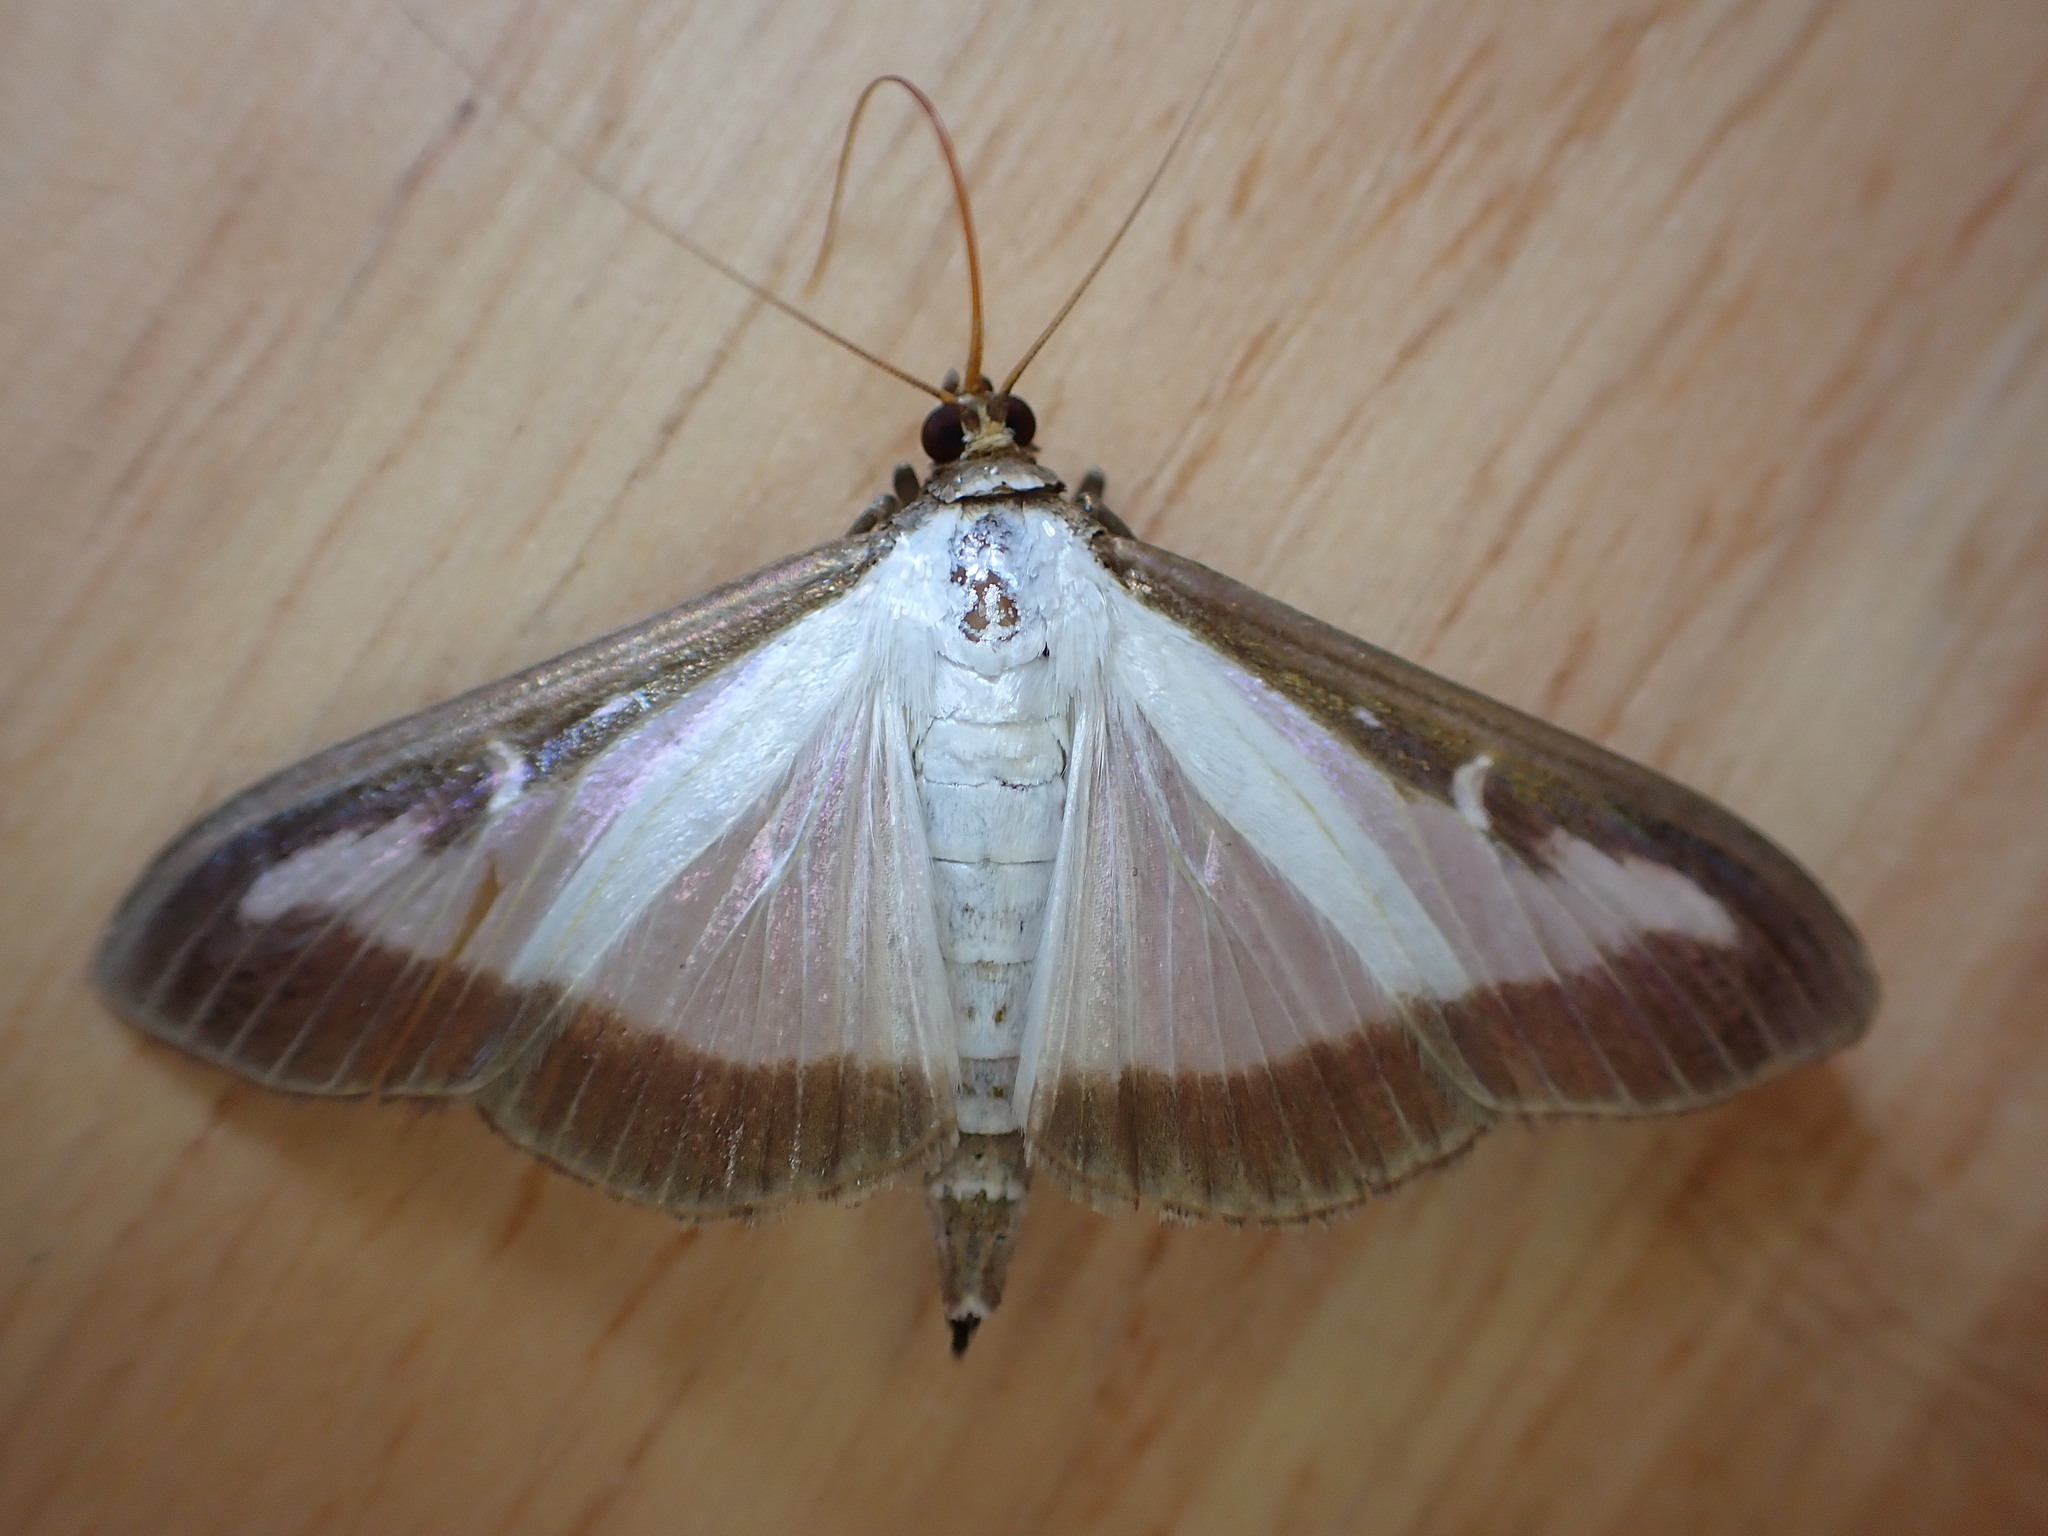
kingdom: Animalia
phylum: Arthropoda
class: Insecta
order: Lepidoptera
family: Crambidae
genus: Cydalima
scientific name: Cydalima perspectalis
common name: Box tree moth
